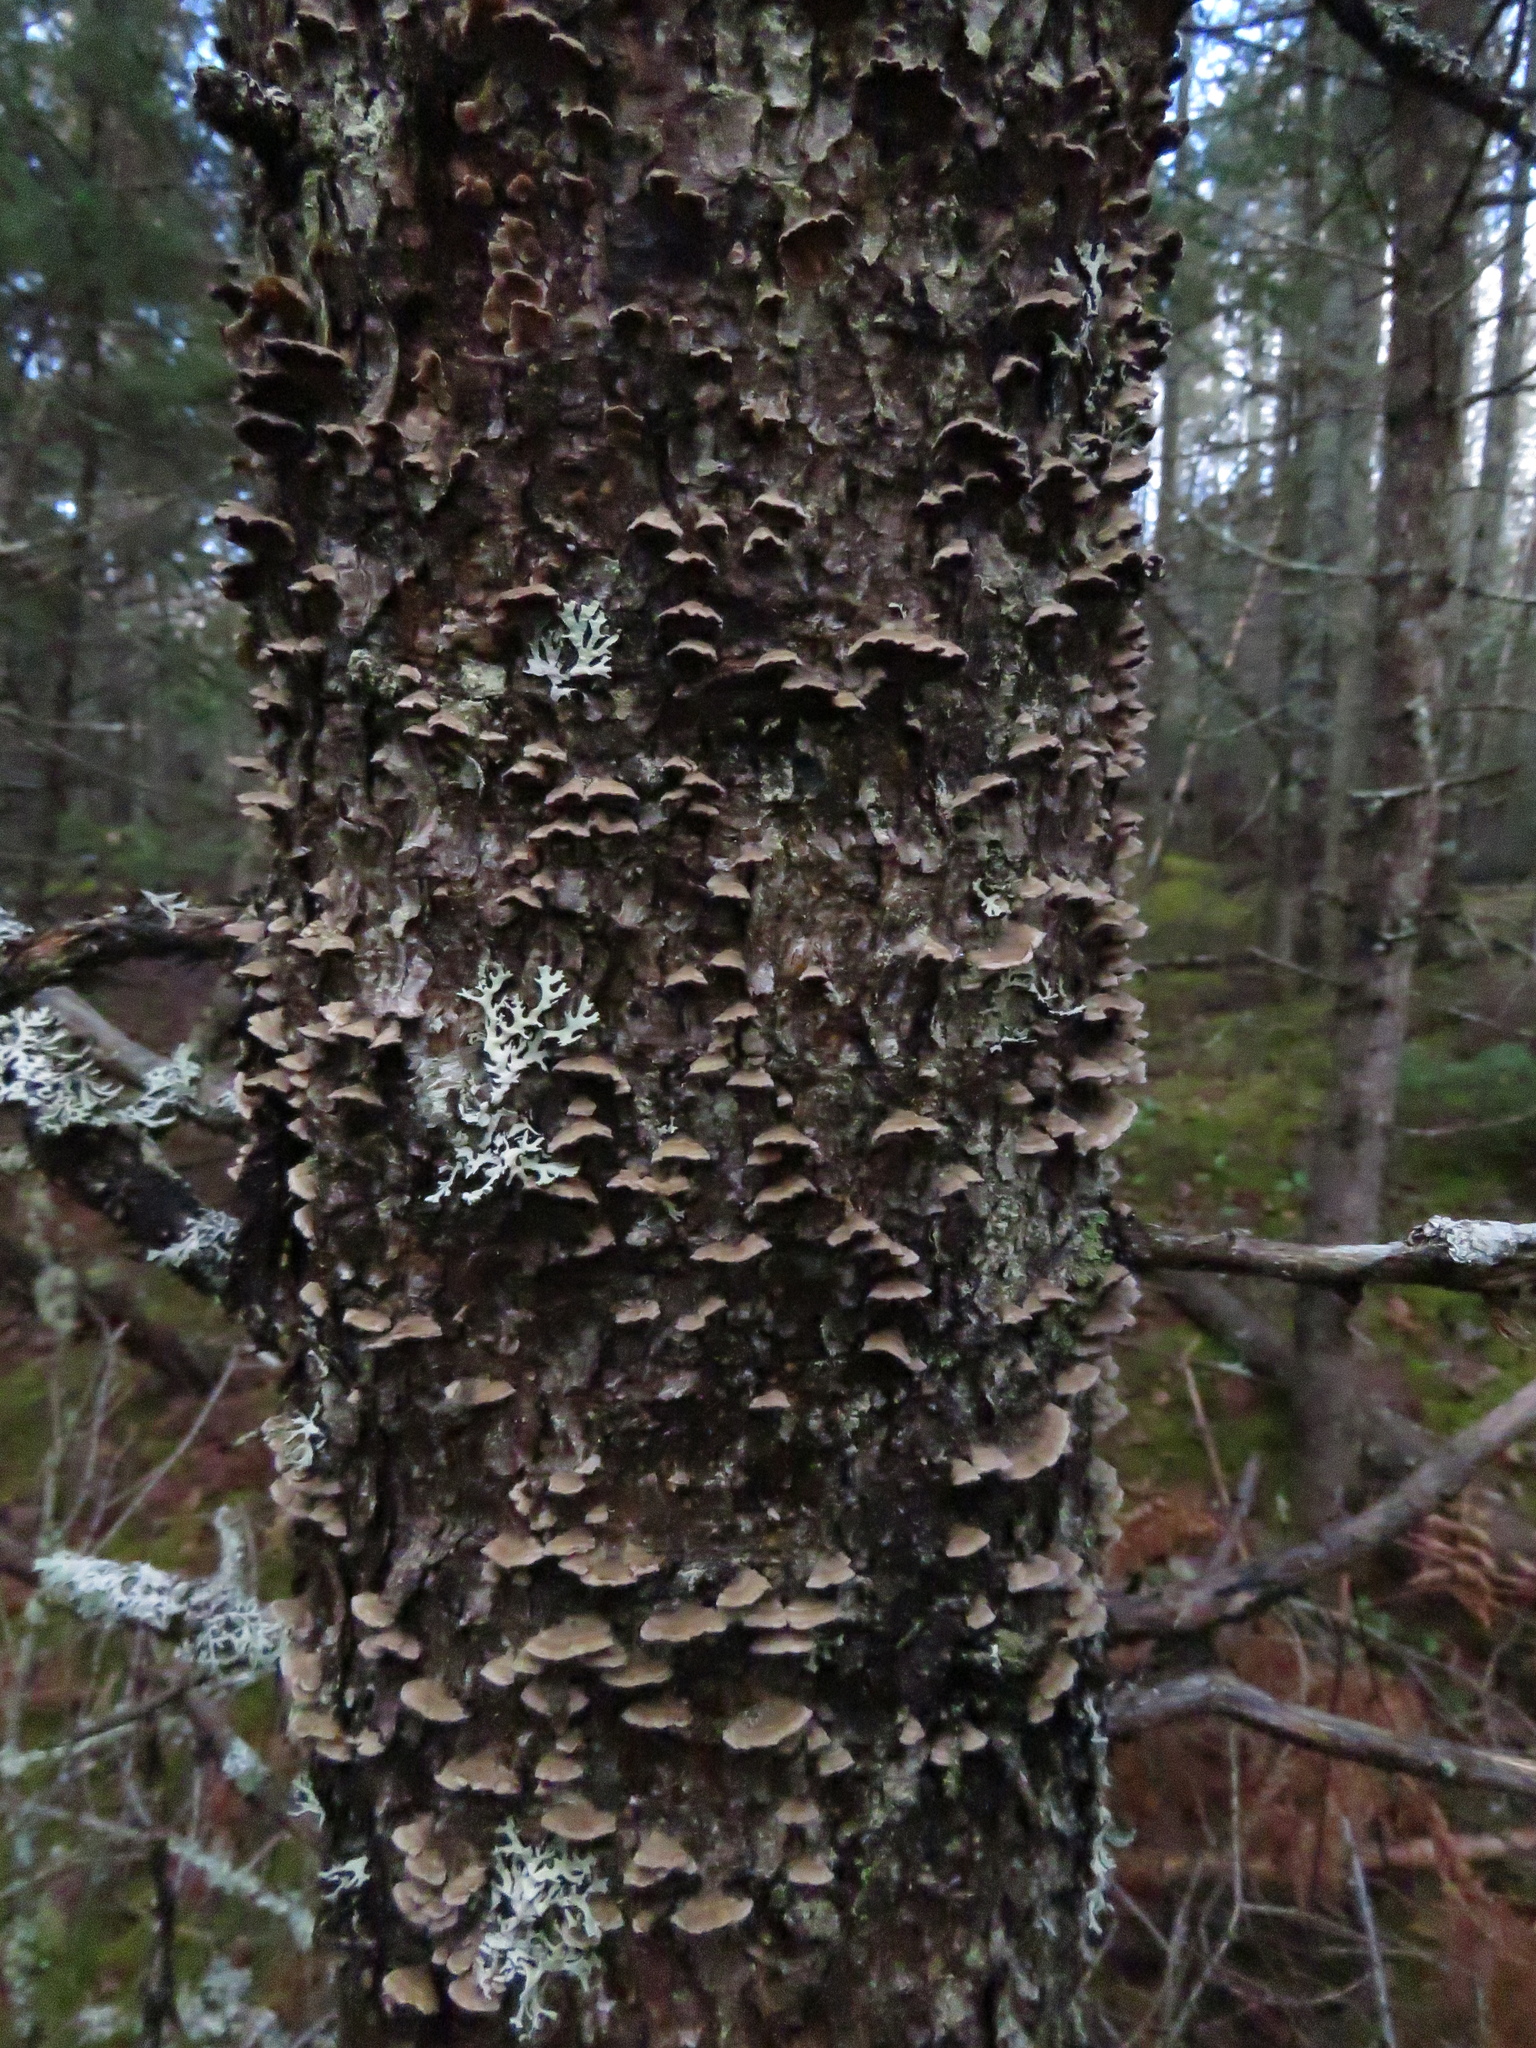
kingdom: Fungi
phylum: Basidiomycota
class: Agaricomycetes
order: Hymenochaetales
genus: Trichaptum
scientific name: Trichaptum abietinum
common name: Purplepore bracket
